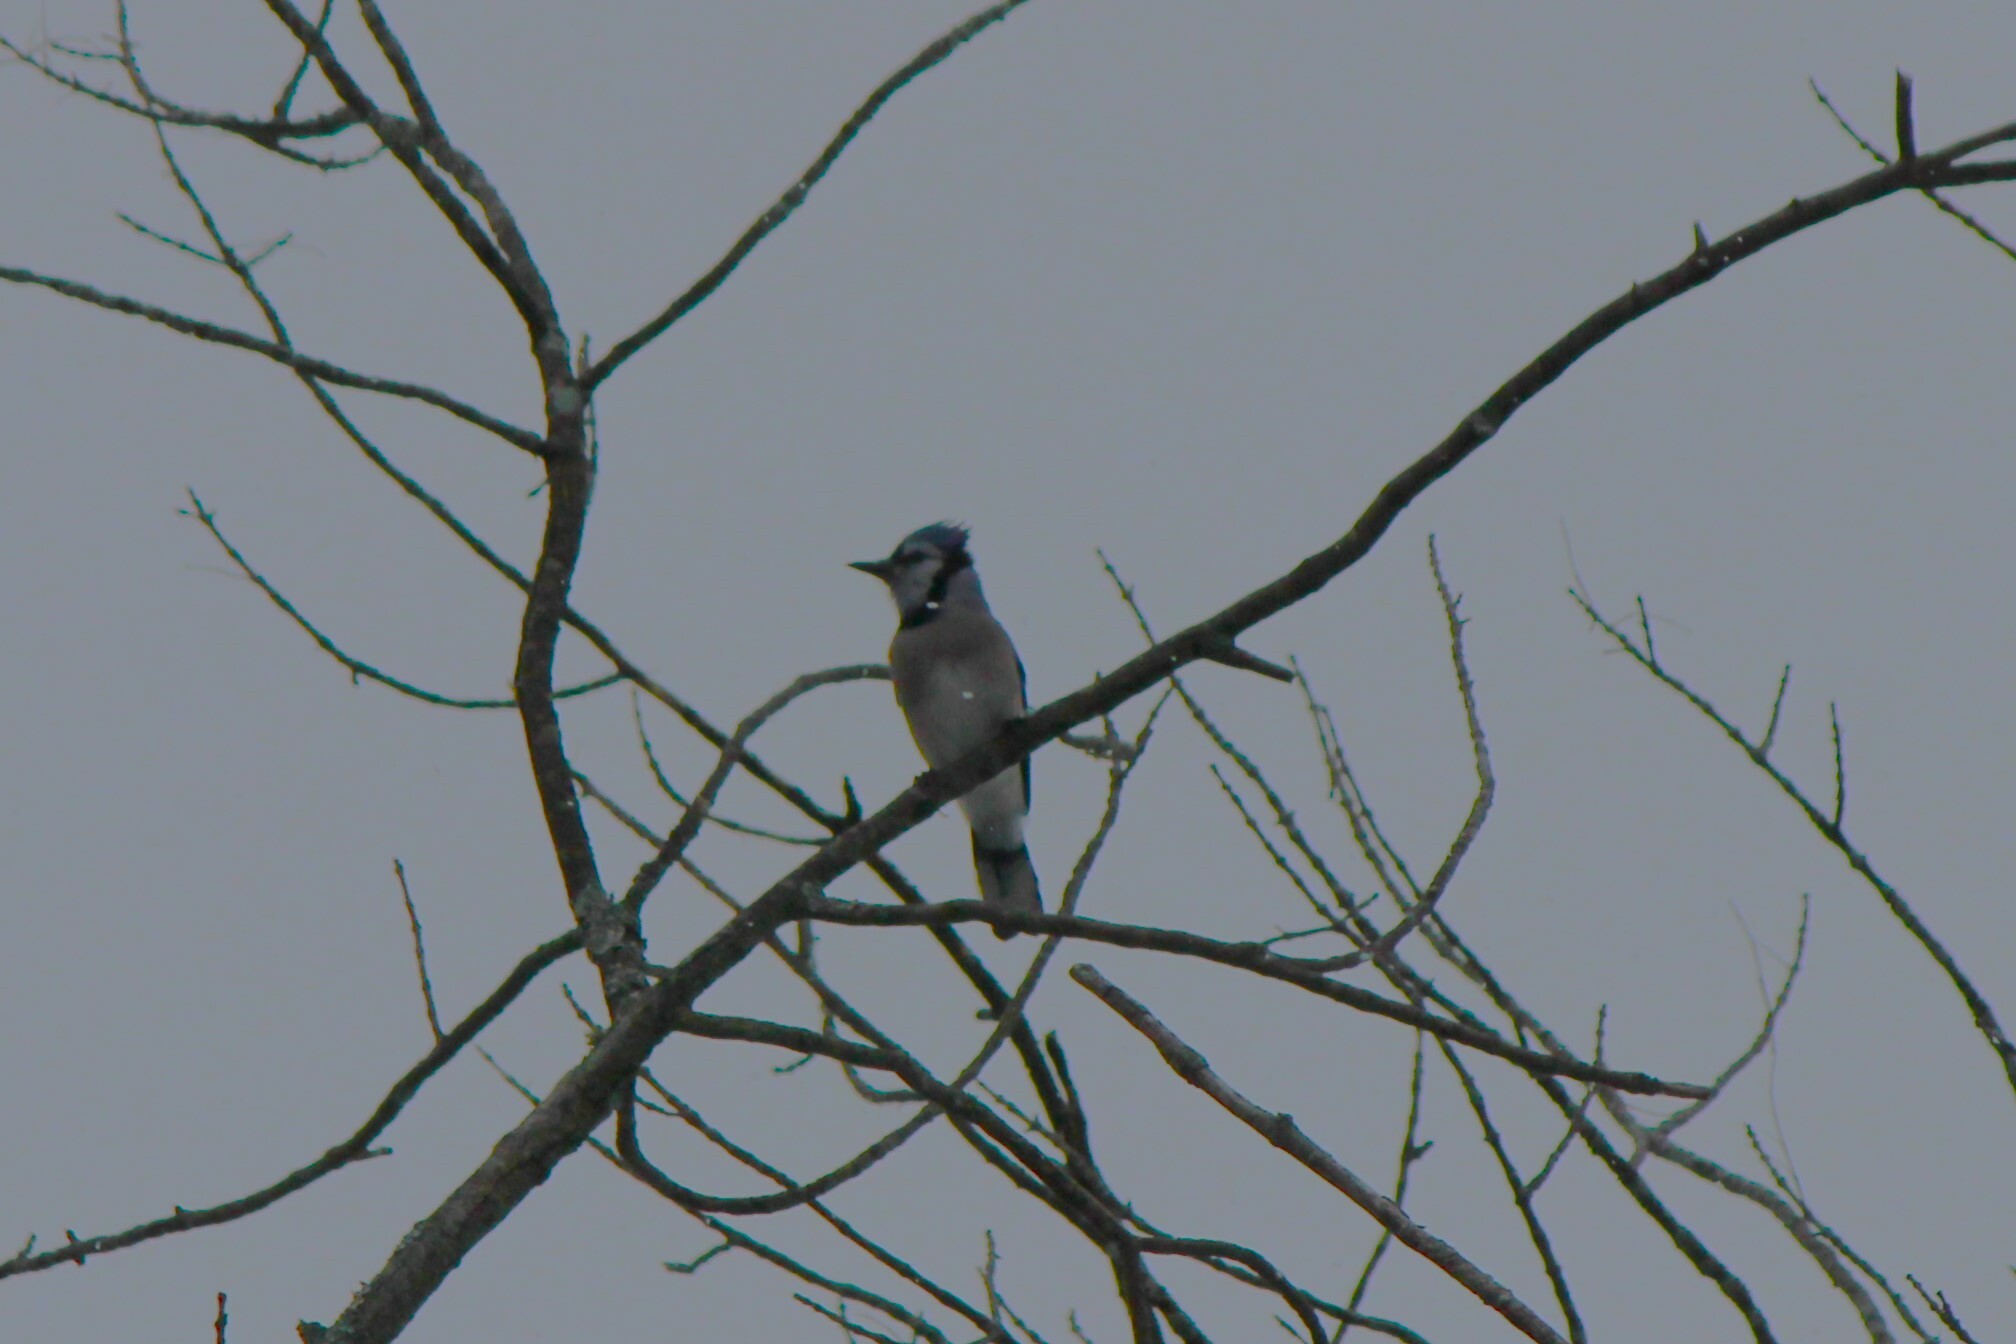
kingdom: Animalia
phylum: Chordata
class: Aves
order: Passeriformes
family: Corvidae
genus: Cyanocitta
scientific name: Cyanocitta cristata
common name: Blue jay
